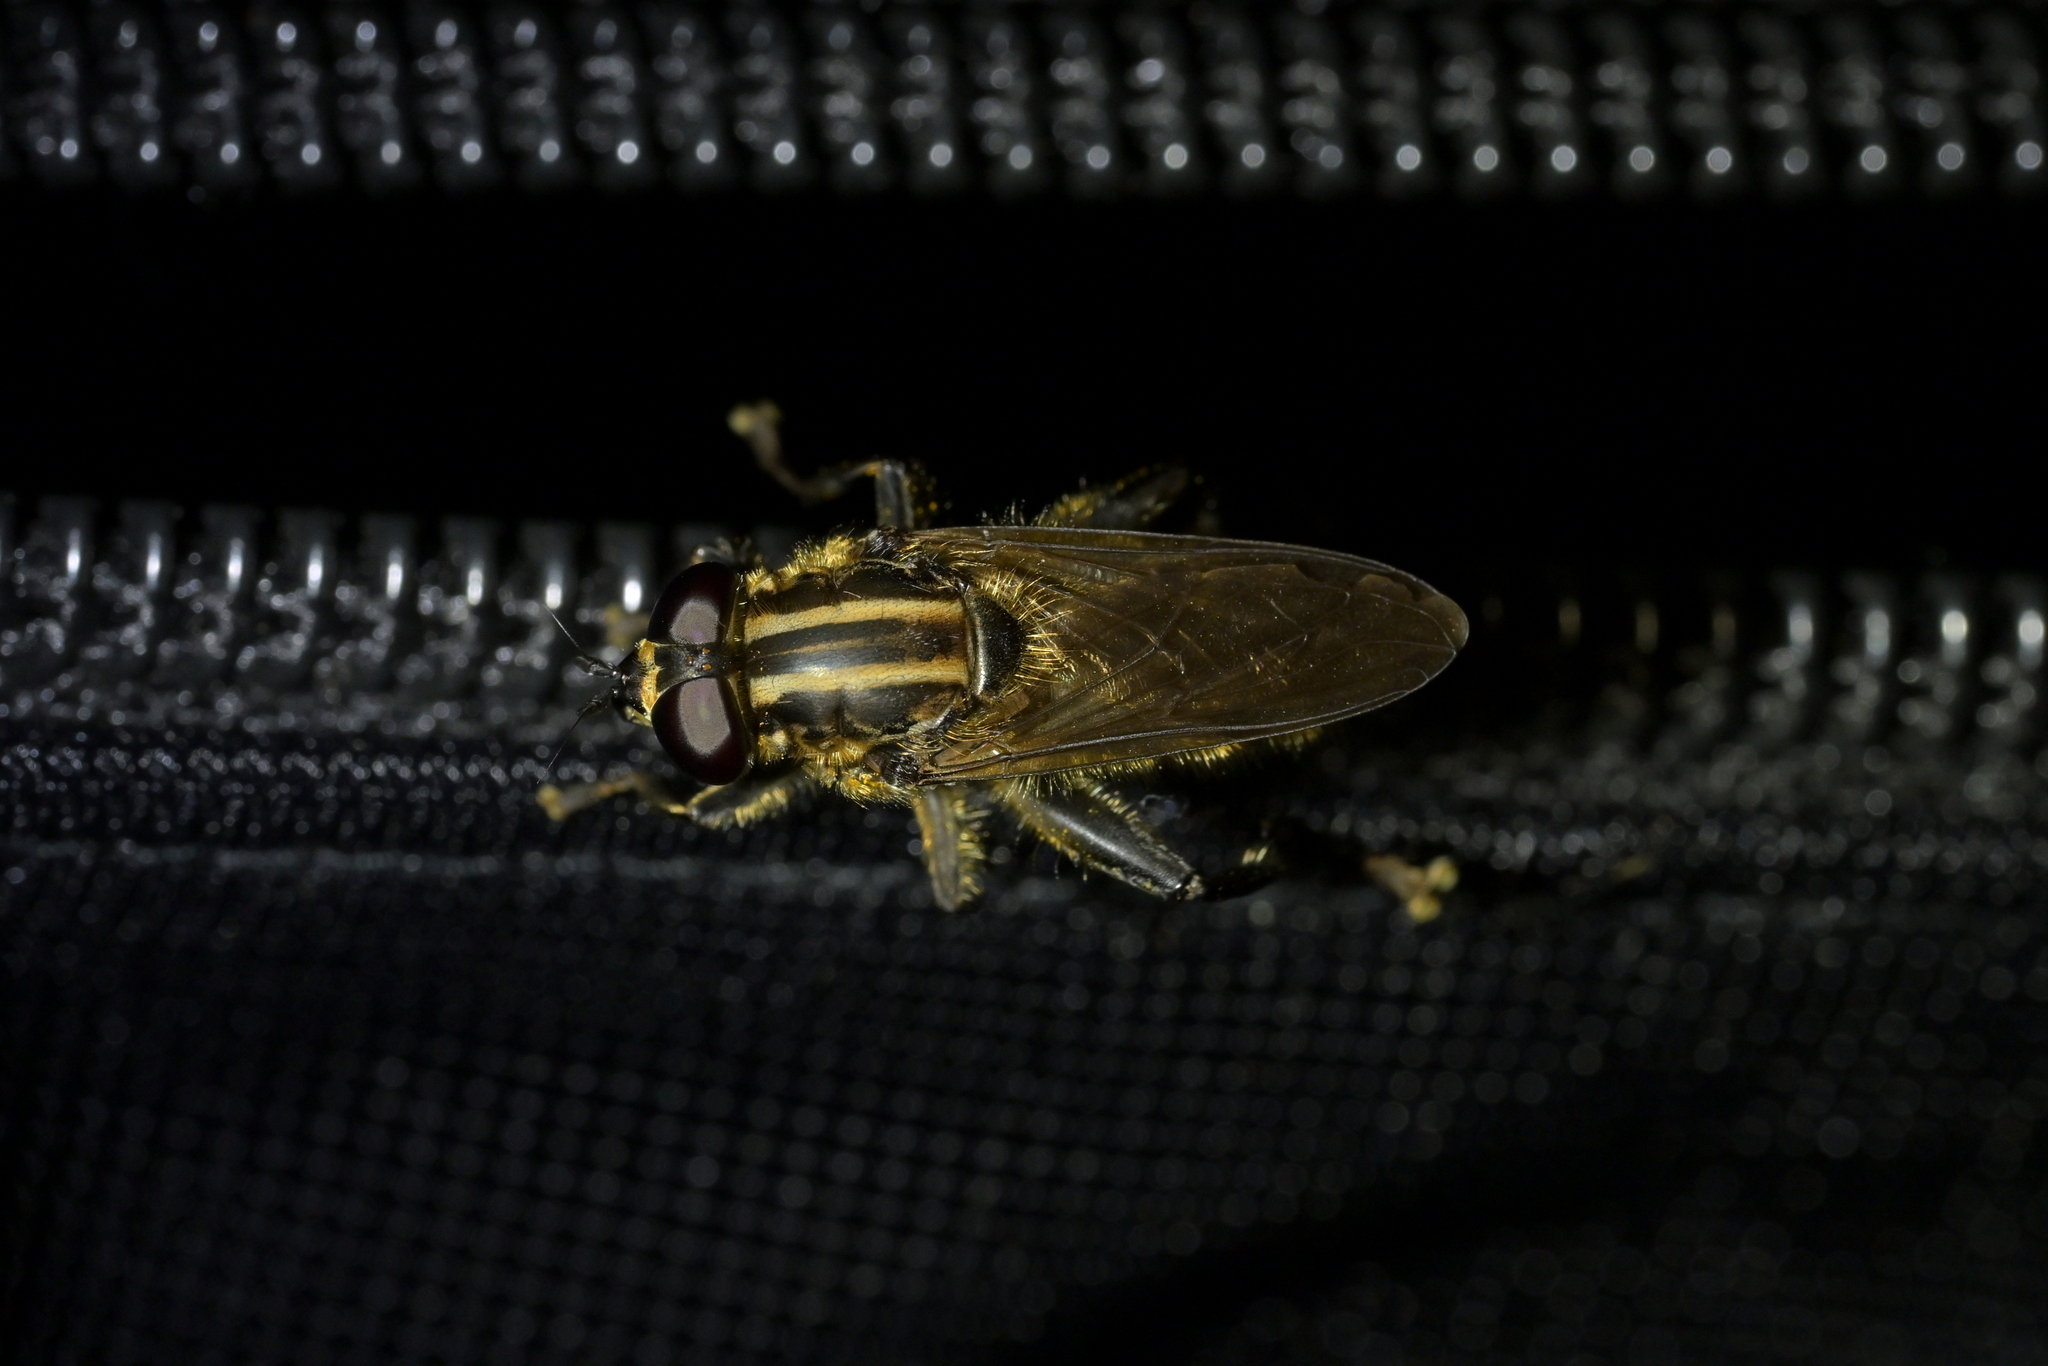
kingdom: Animalia
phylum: Arthropoda
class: Insecta
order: Diptera
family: Syrphidae
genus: Orthoprosopa
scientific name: Orthoprosopa bilineata
